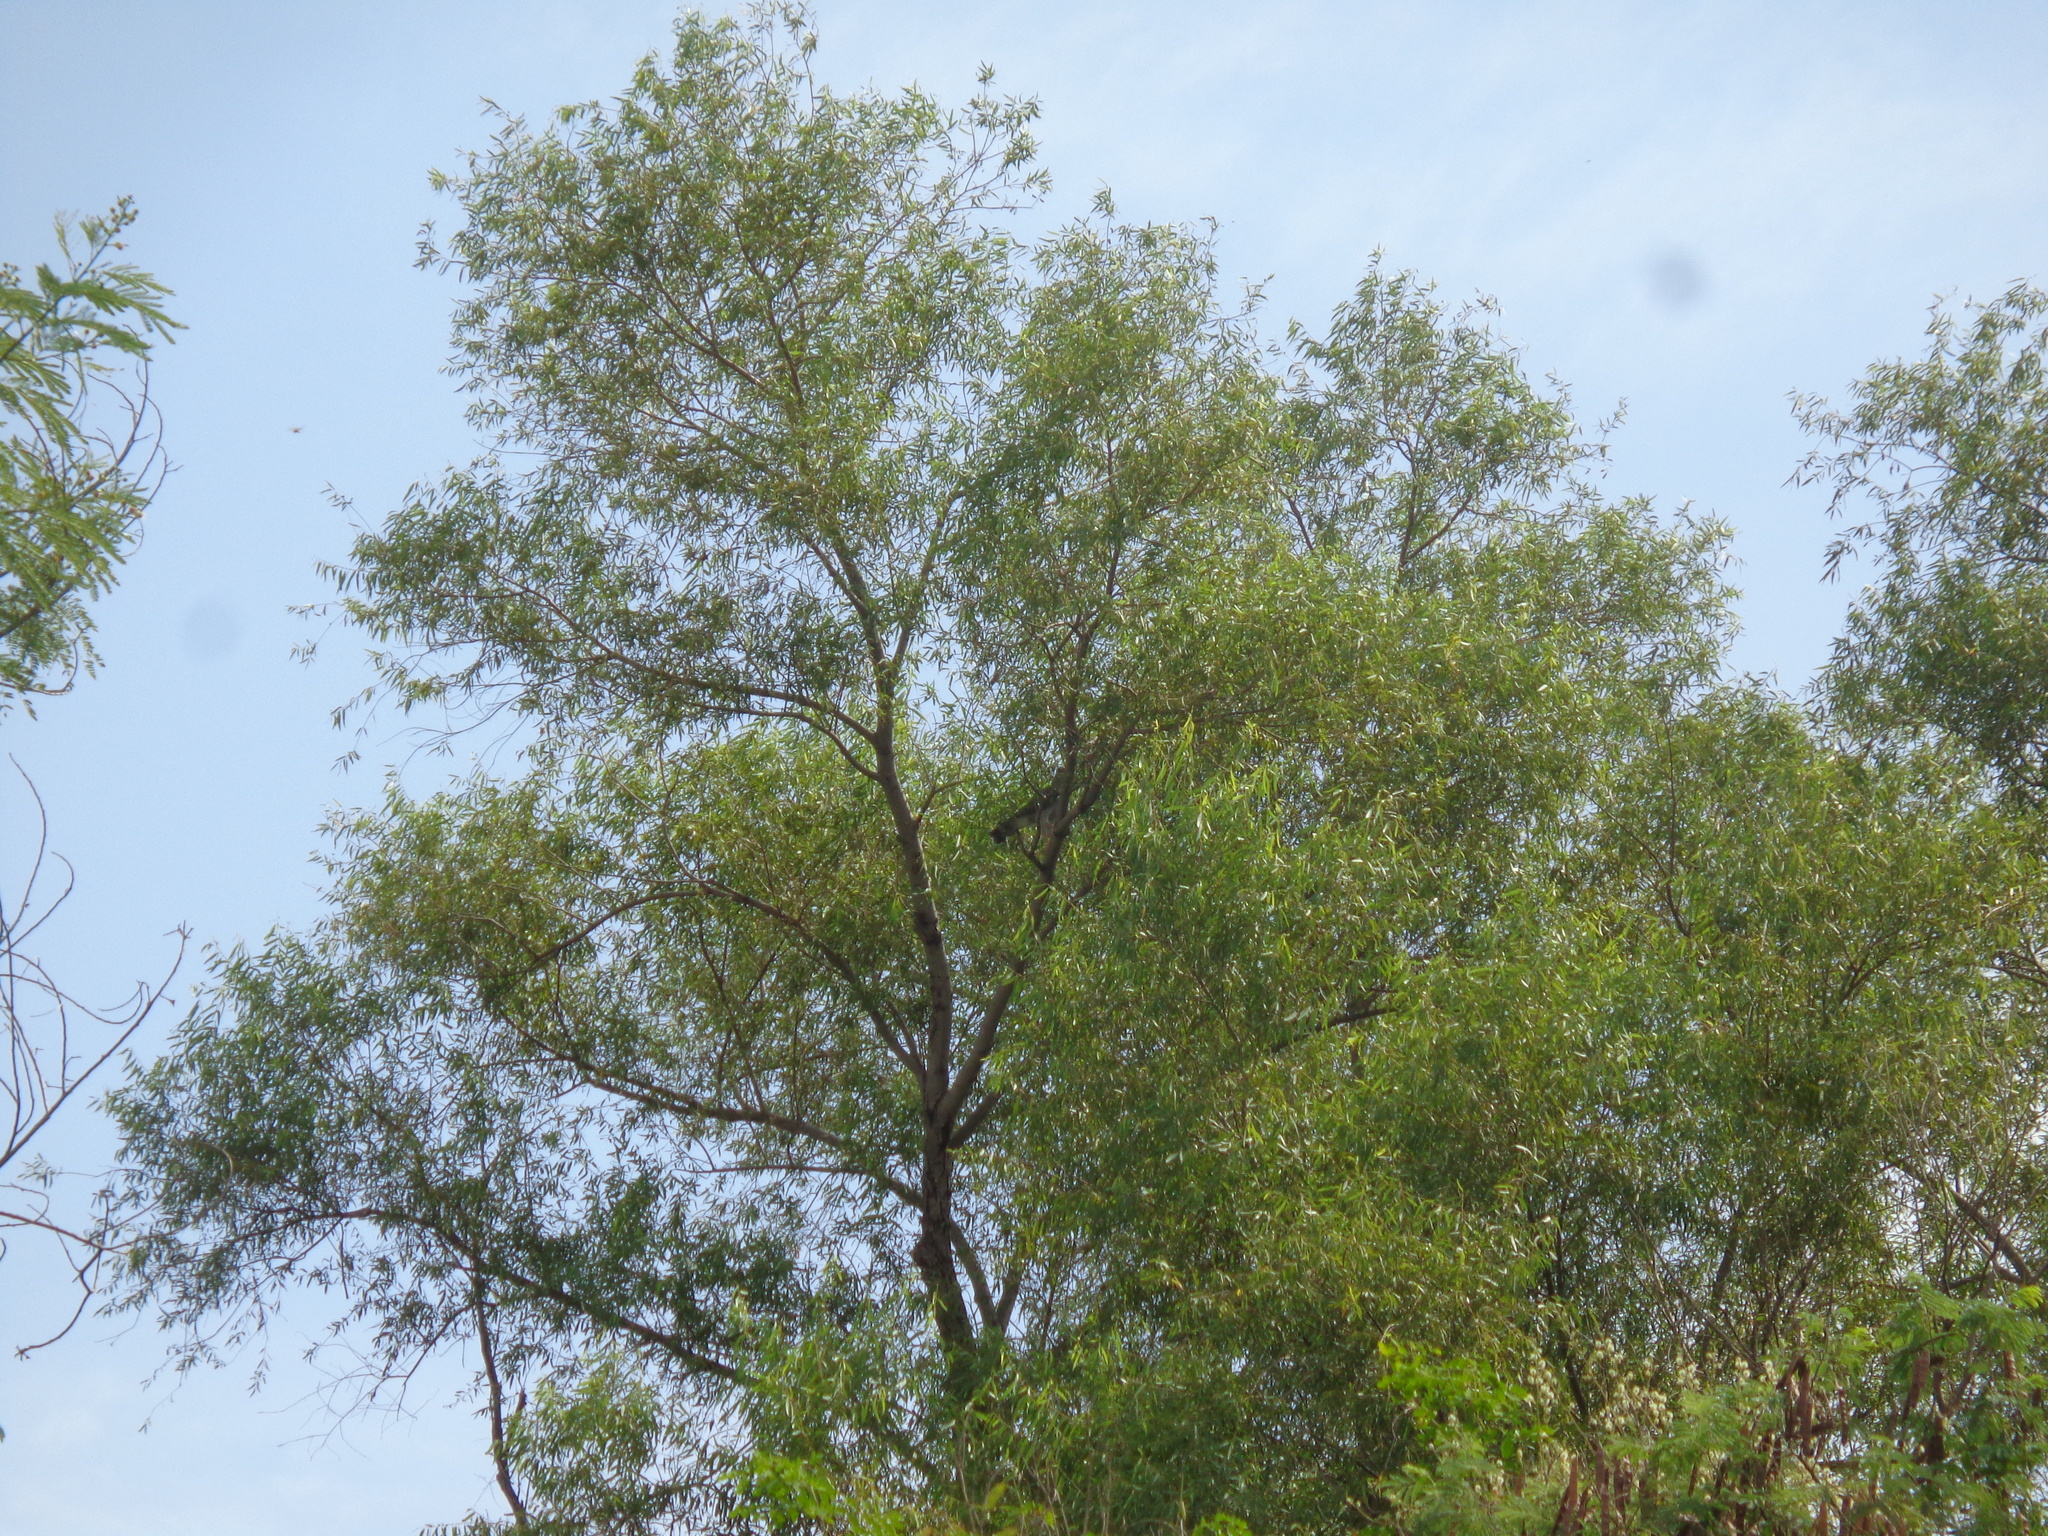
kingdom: Animalia
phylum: Chordata
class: Aves
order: Accipitriformes
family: Accipitridae
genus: Buteo
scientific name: Buteo nitidus
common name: Grey-lined hawk
